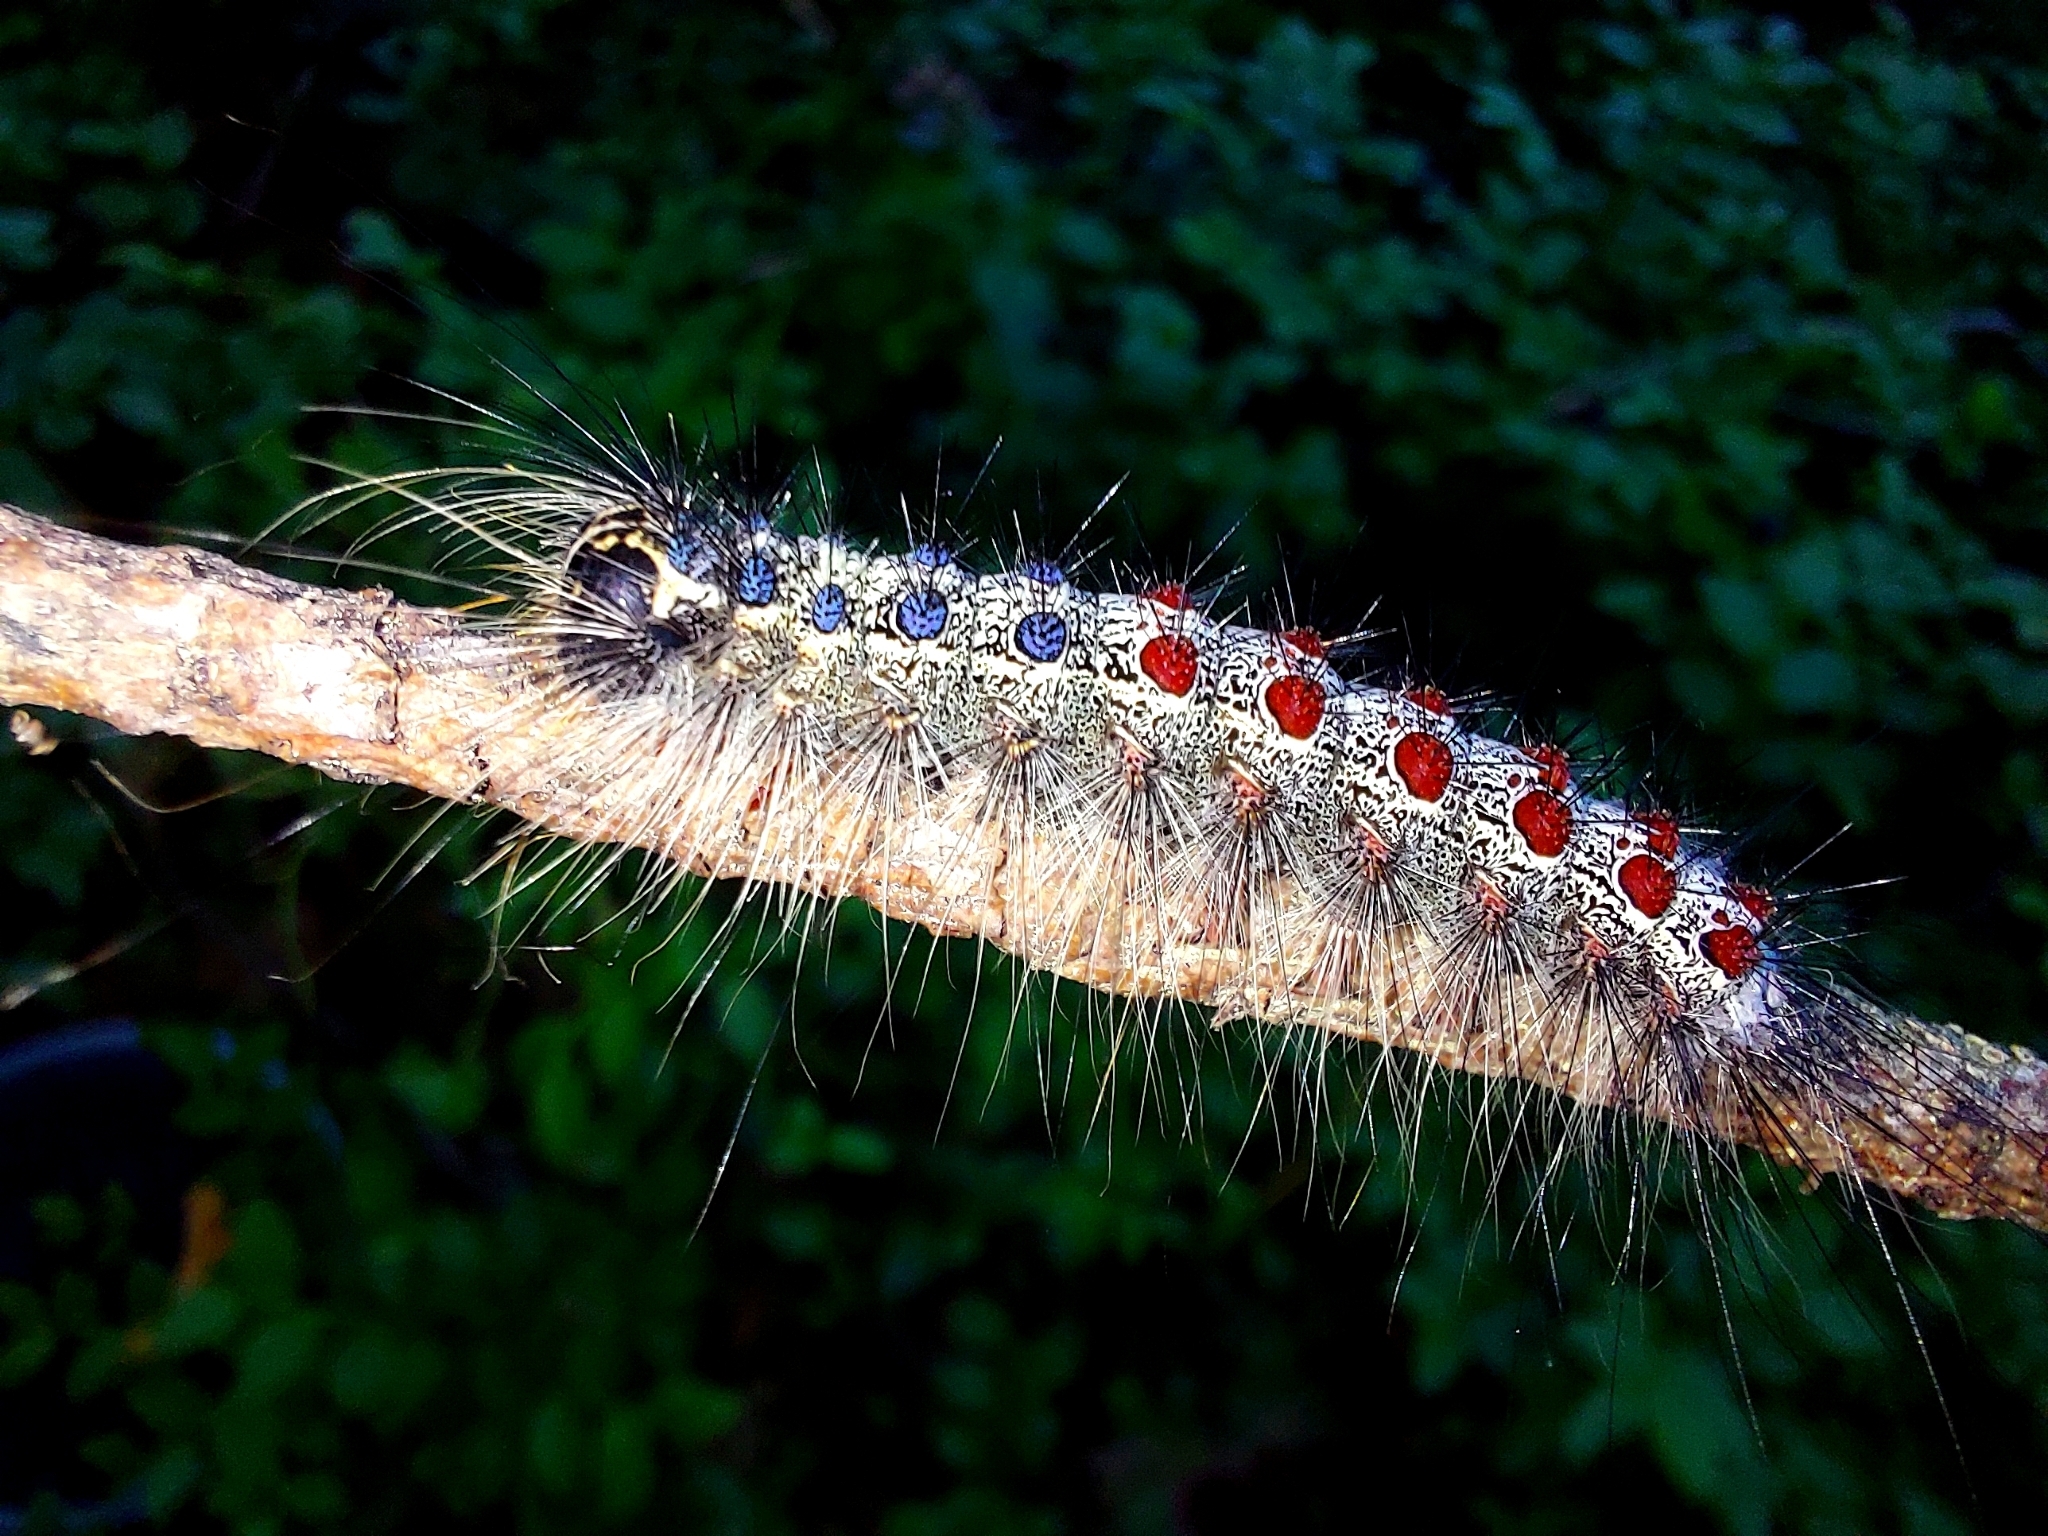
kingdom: Animalia
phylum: Arthropoda
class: Insecta
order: Lepidoptera
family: Erebidae
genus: Lymantria
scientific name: Lymantria dispar
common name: Gypsy moth
